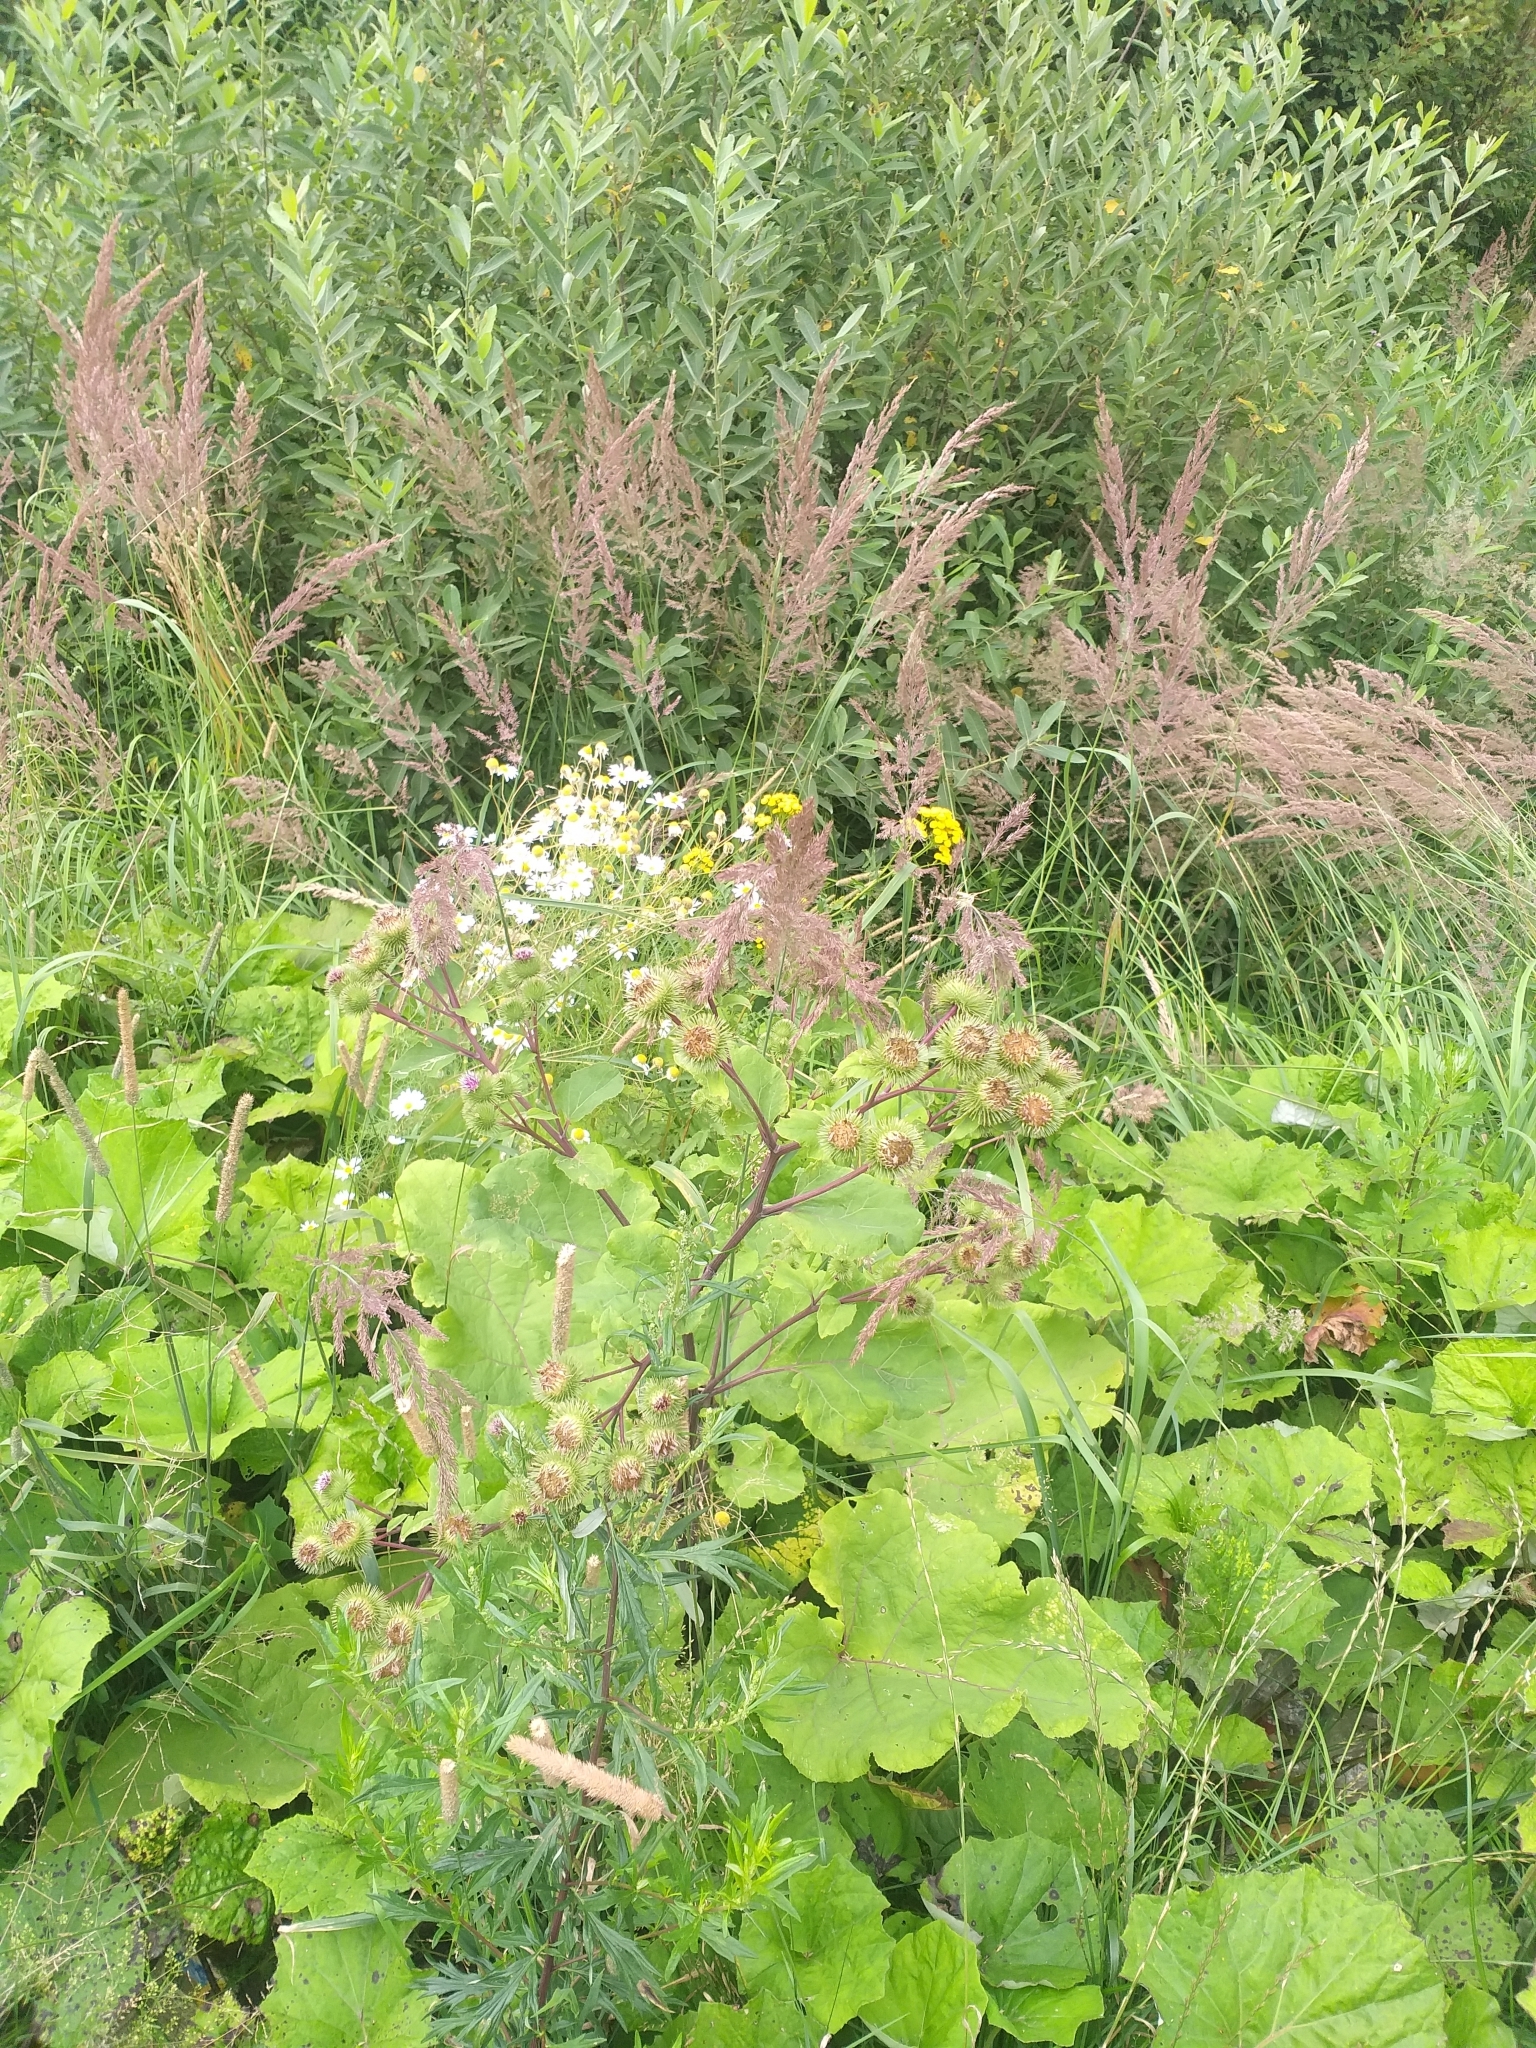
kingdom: Plantae
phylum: Tracheophyta
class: Magnoliopsida
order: Asterales
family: Asteraceae
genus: Arctium
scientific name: Arctium lappa
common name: Greater burdock
